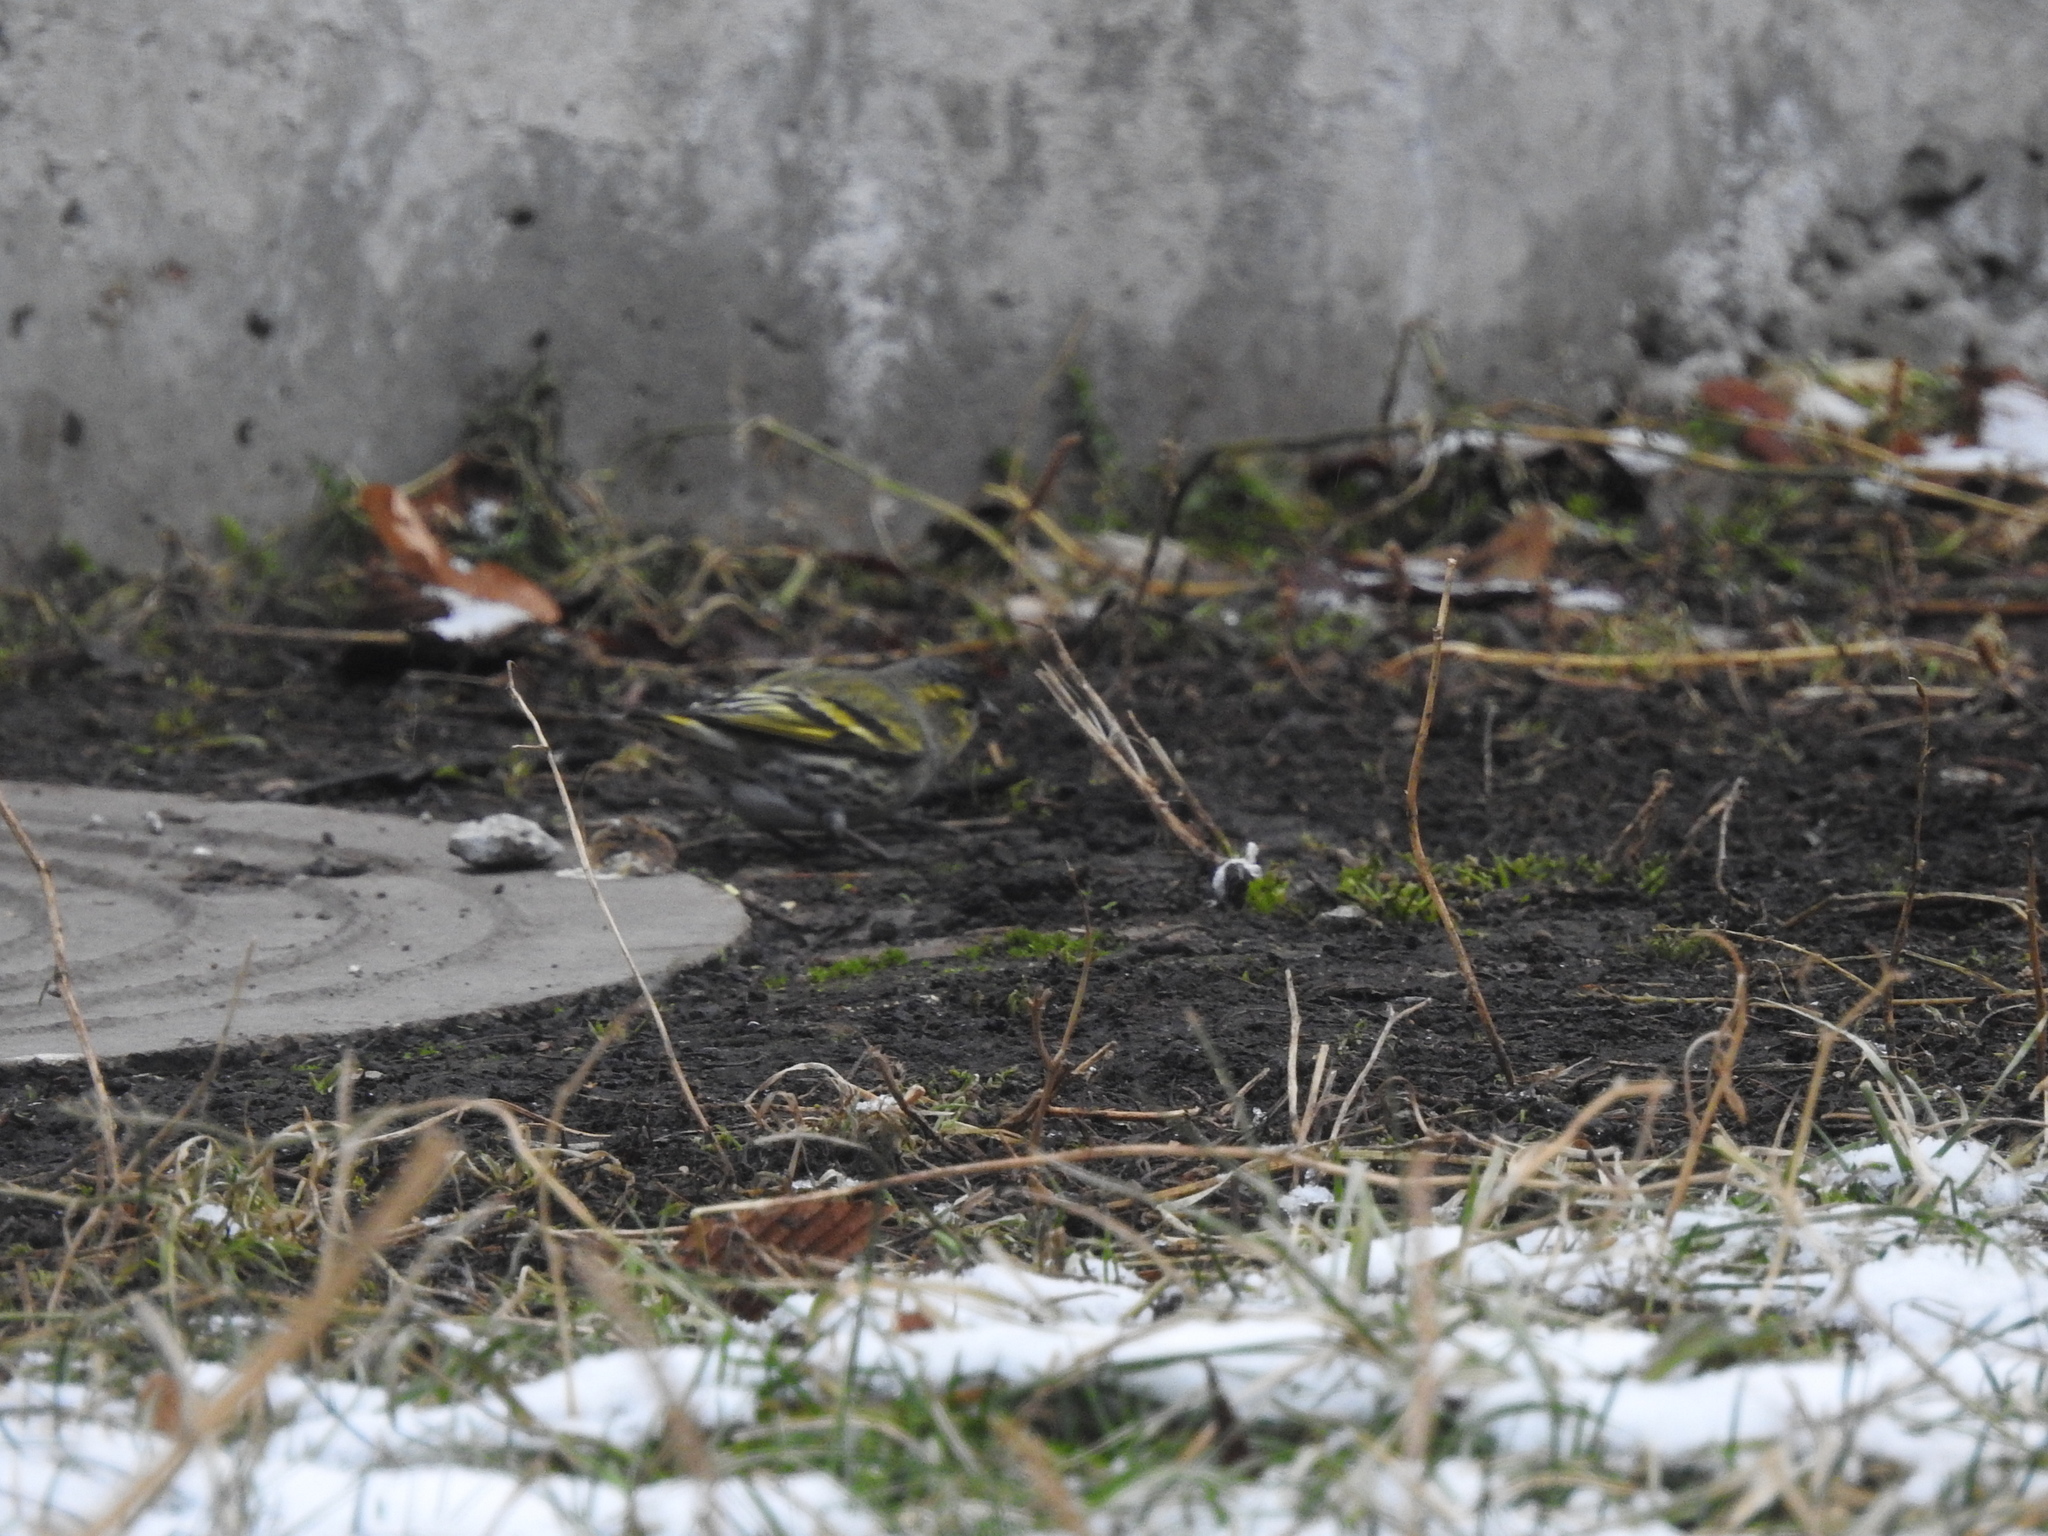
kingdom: Animalia
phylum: Chordata
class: Aves
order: Passeriformes
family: Fringillidae
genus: Spinus
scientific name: Spinus spinus
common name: Eurasian siskin
